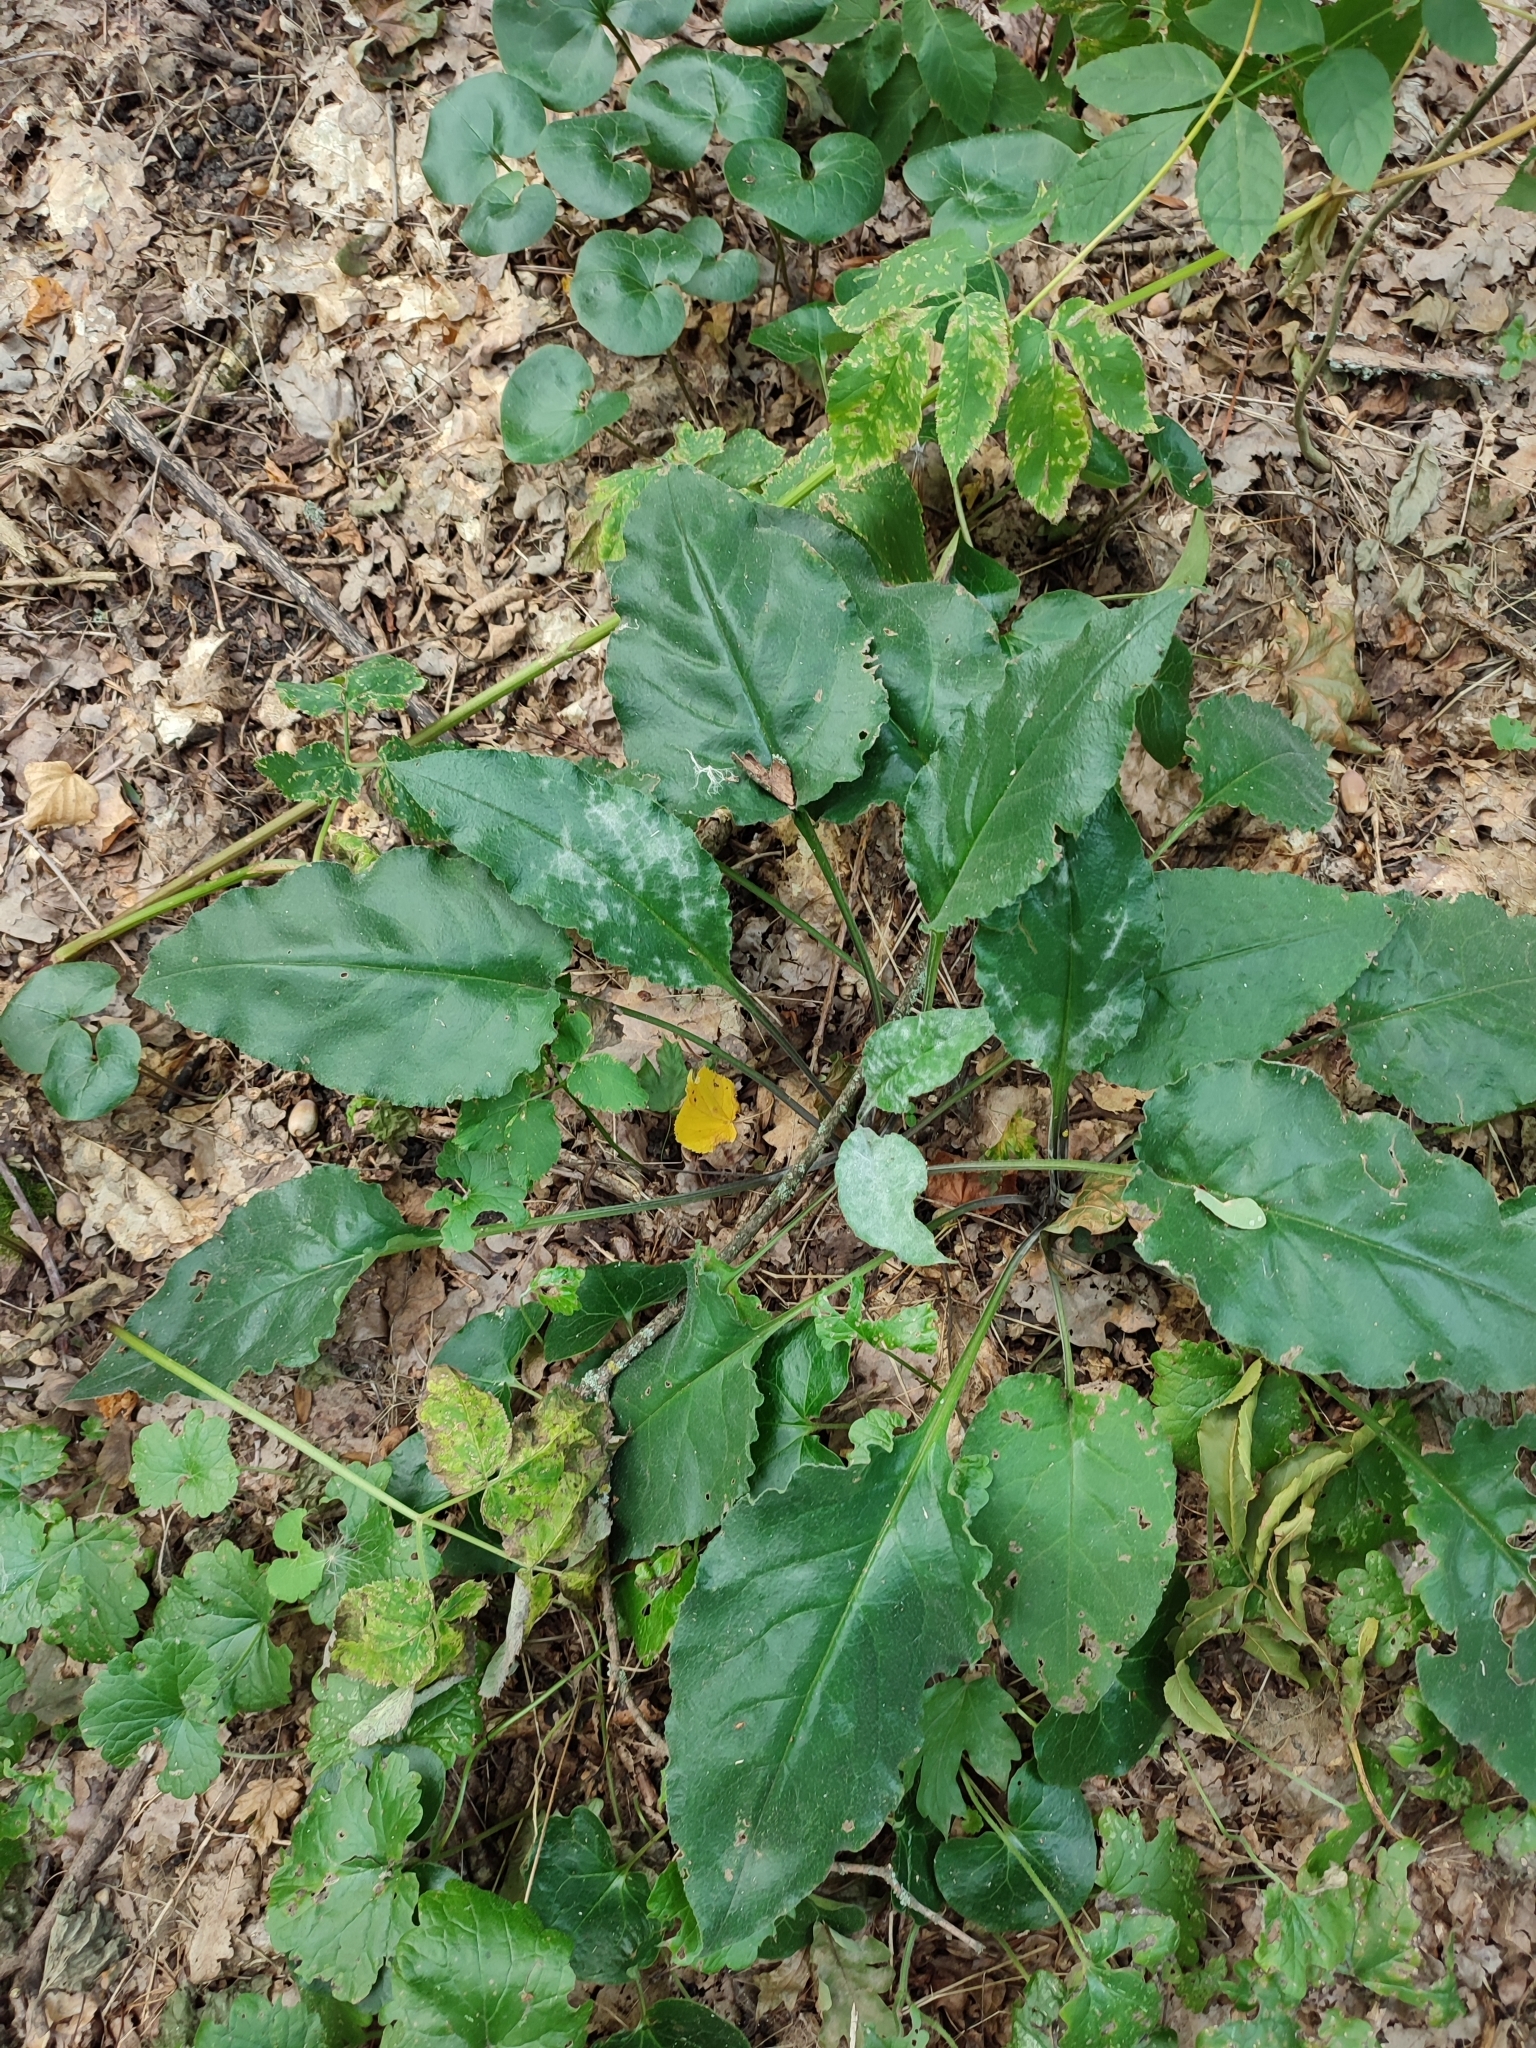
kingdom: Plantae
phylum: Tracheophyta
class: Magnoliopsida
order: Boraginales
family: Boraginaceae
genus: Pulmonaria
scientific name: Pulmonaria obscura
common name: Suffolk lungwort
